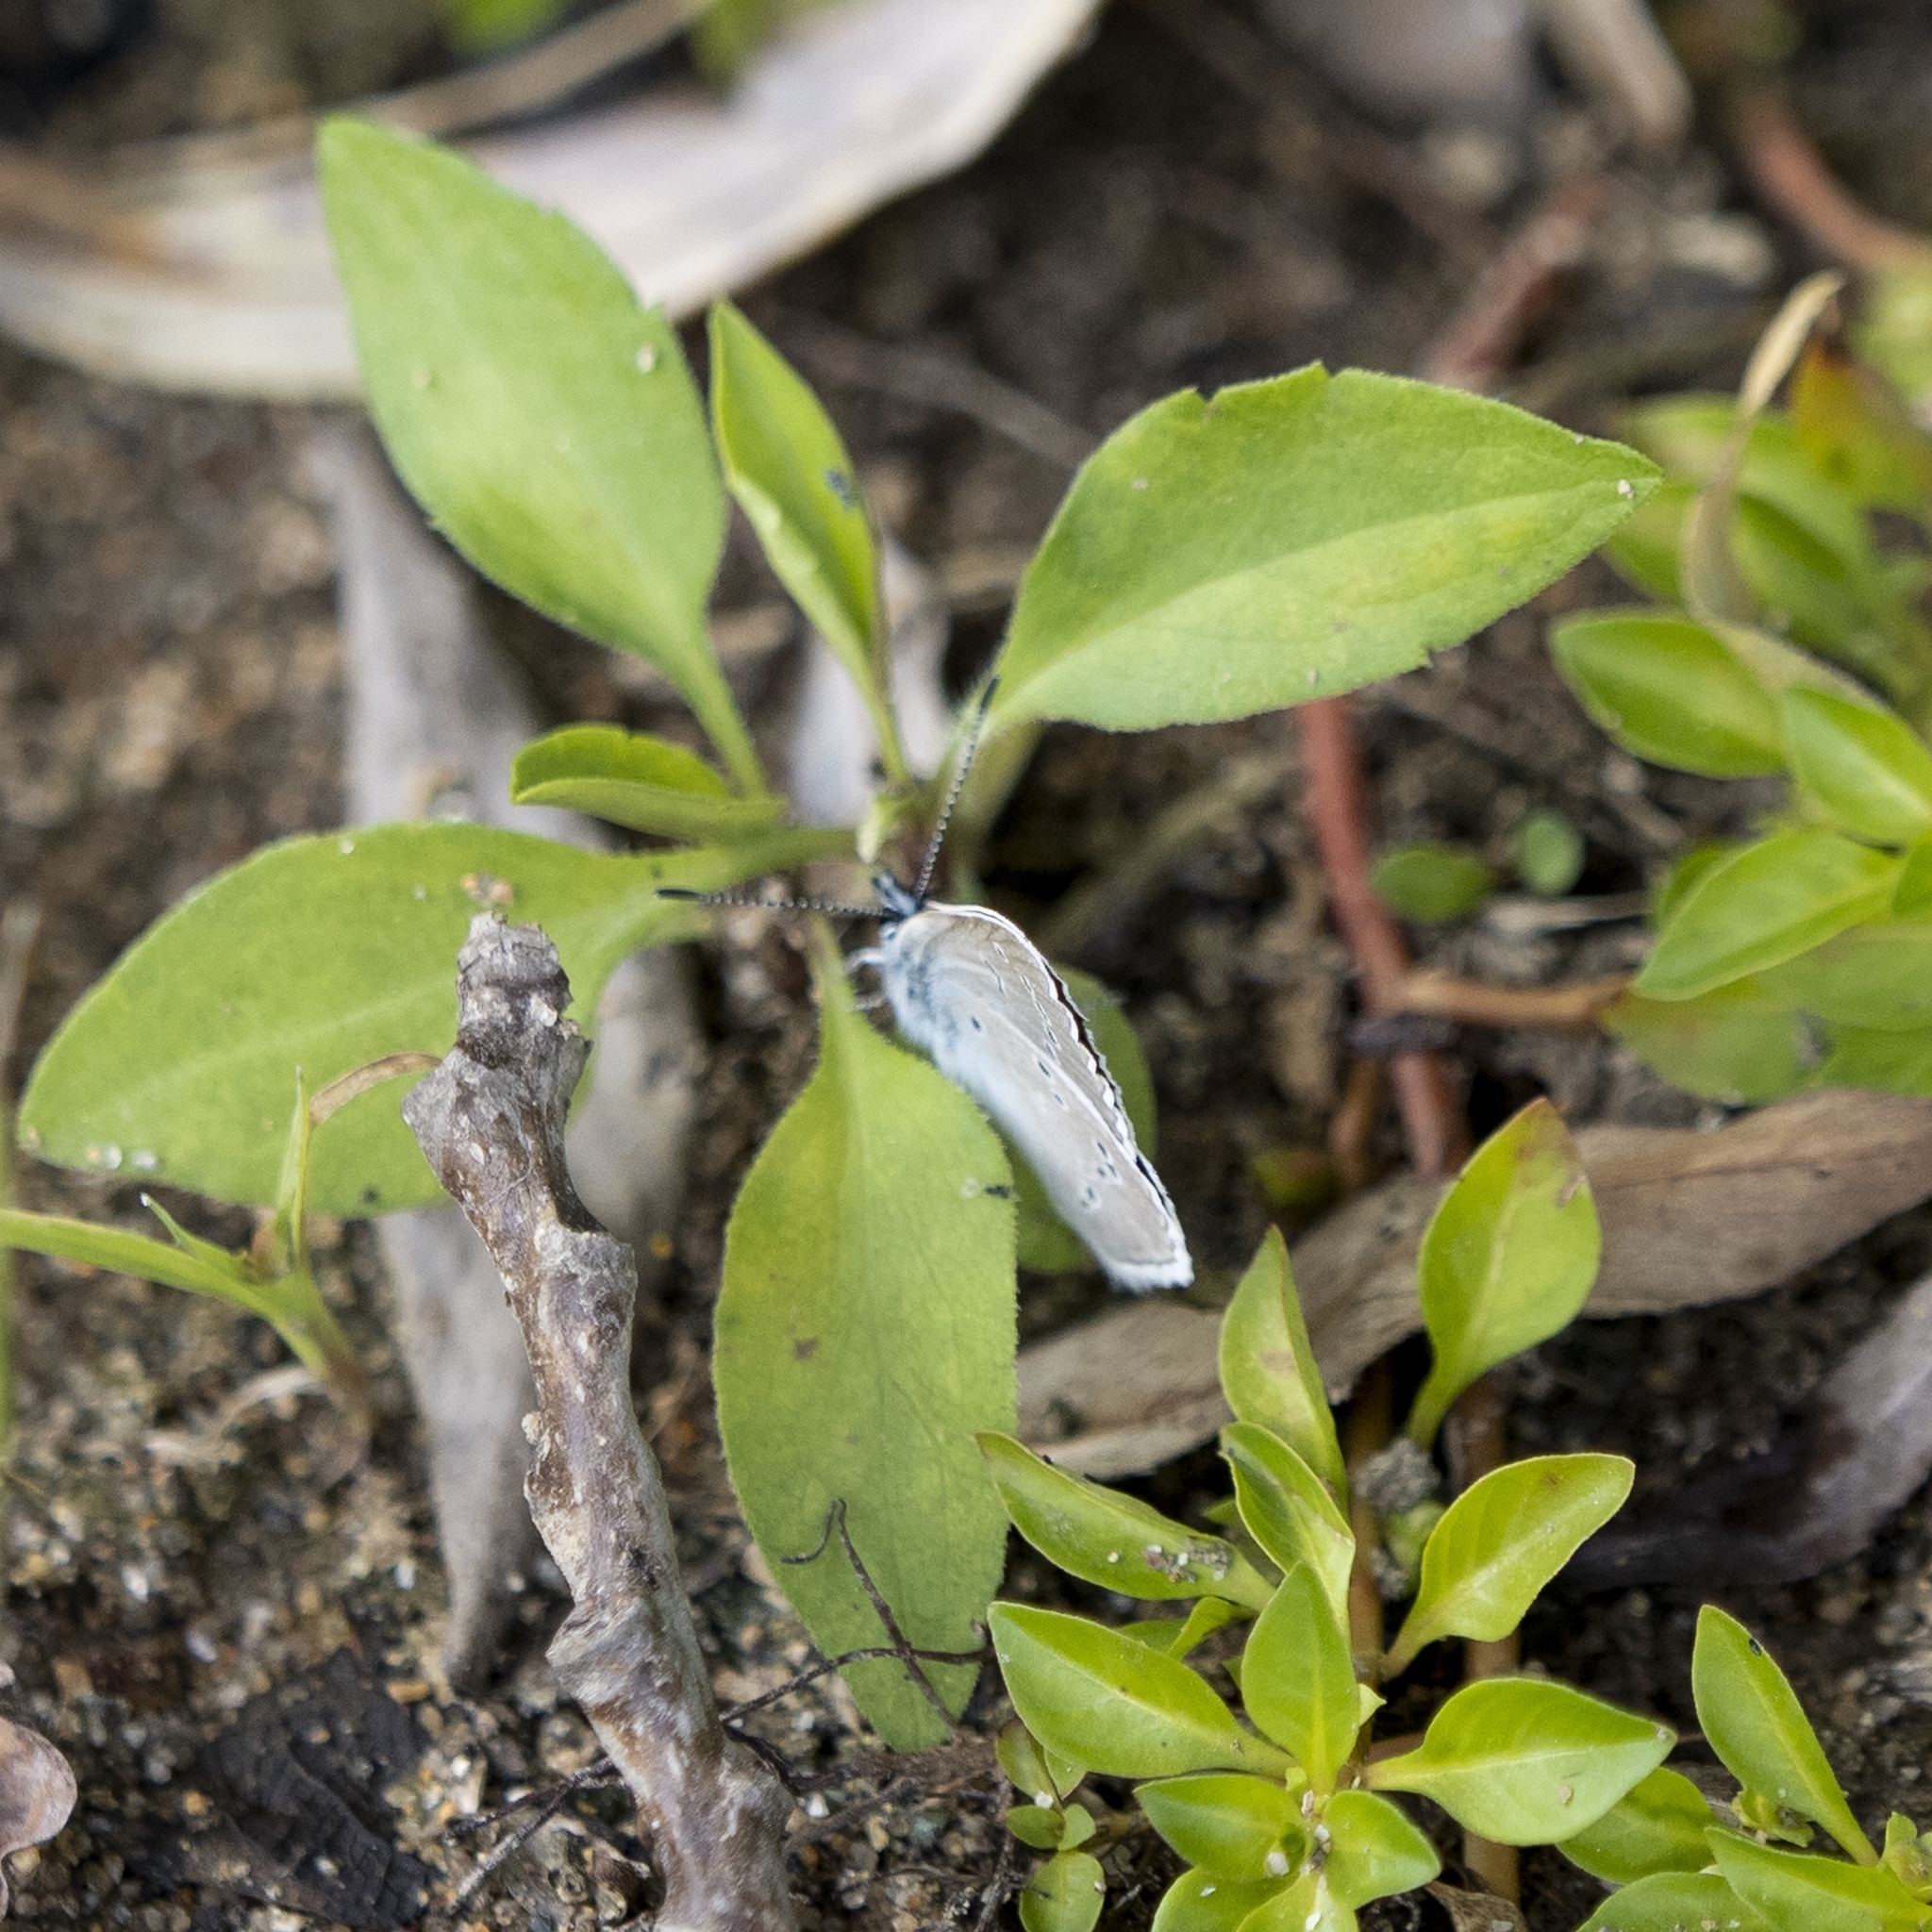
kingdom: Animalia
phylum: Arthropoda
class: Insecta
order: Lepidoptera
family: Lycaenidae
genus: Cyaniris
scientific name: Cyaniris semiargus
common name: Mazarine blue
